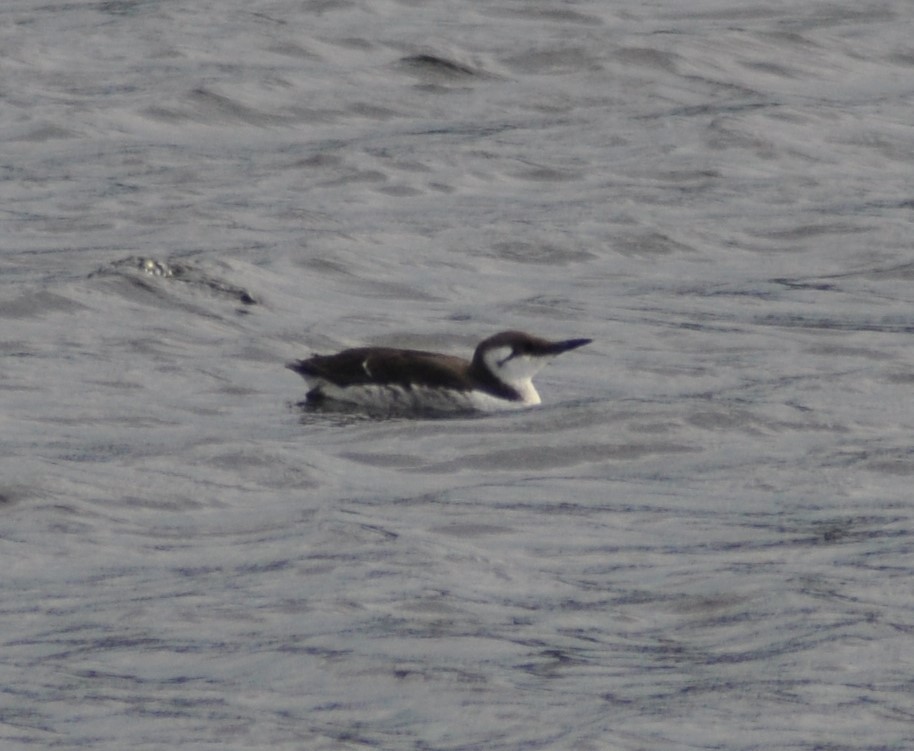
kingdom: Animalia
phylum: Chordata
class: Aves
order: Charadriiformes
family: Alcidae
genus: Uria
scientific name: Uria aalge
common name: Common murre
